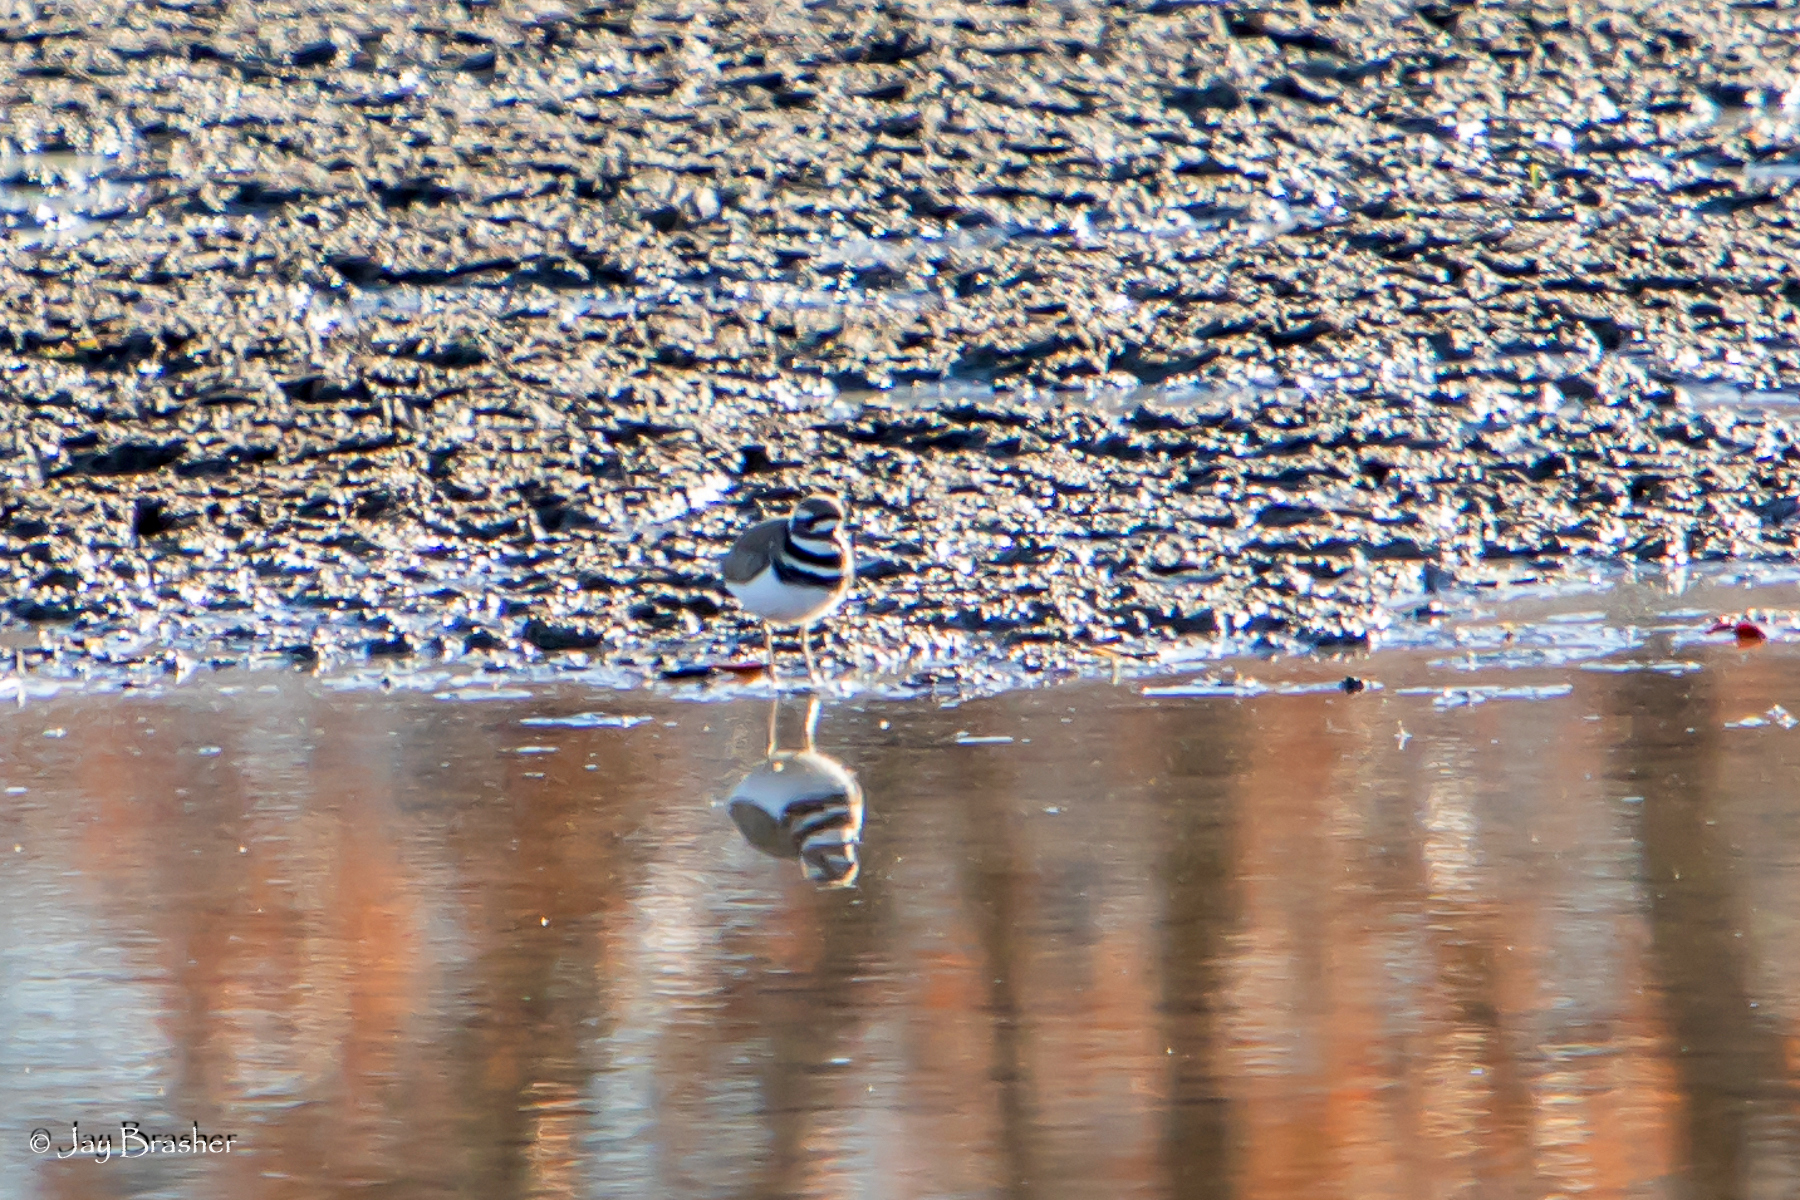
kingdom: Animalia
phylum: Chordata
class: Aves
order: Charadriiformes
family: Charadriidae
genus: Charadrius
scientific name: Charadrius vociferus
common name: Killdeer
